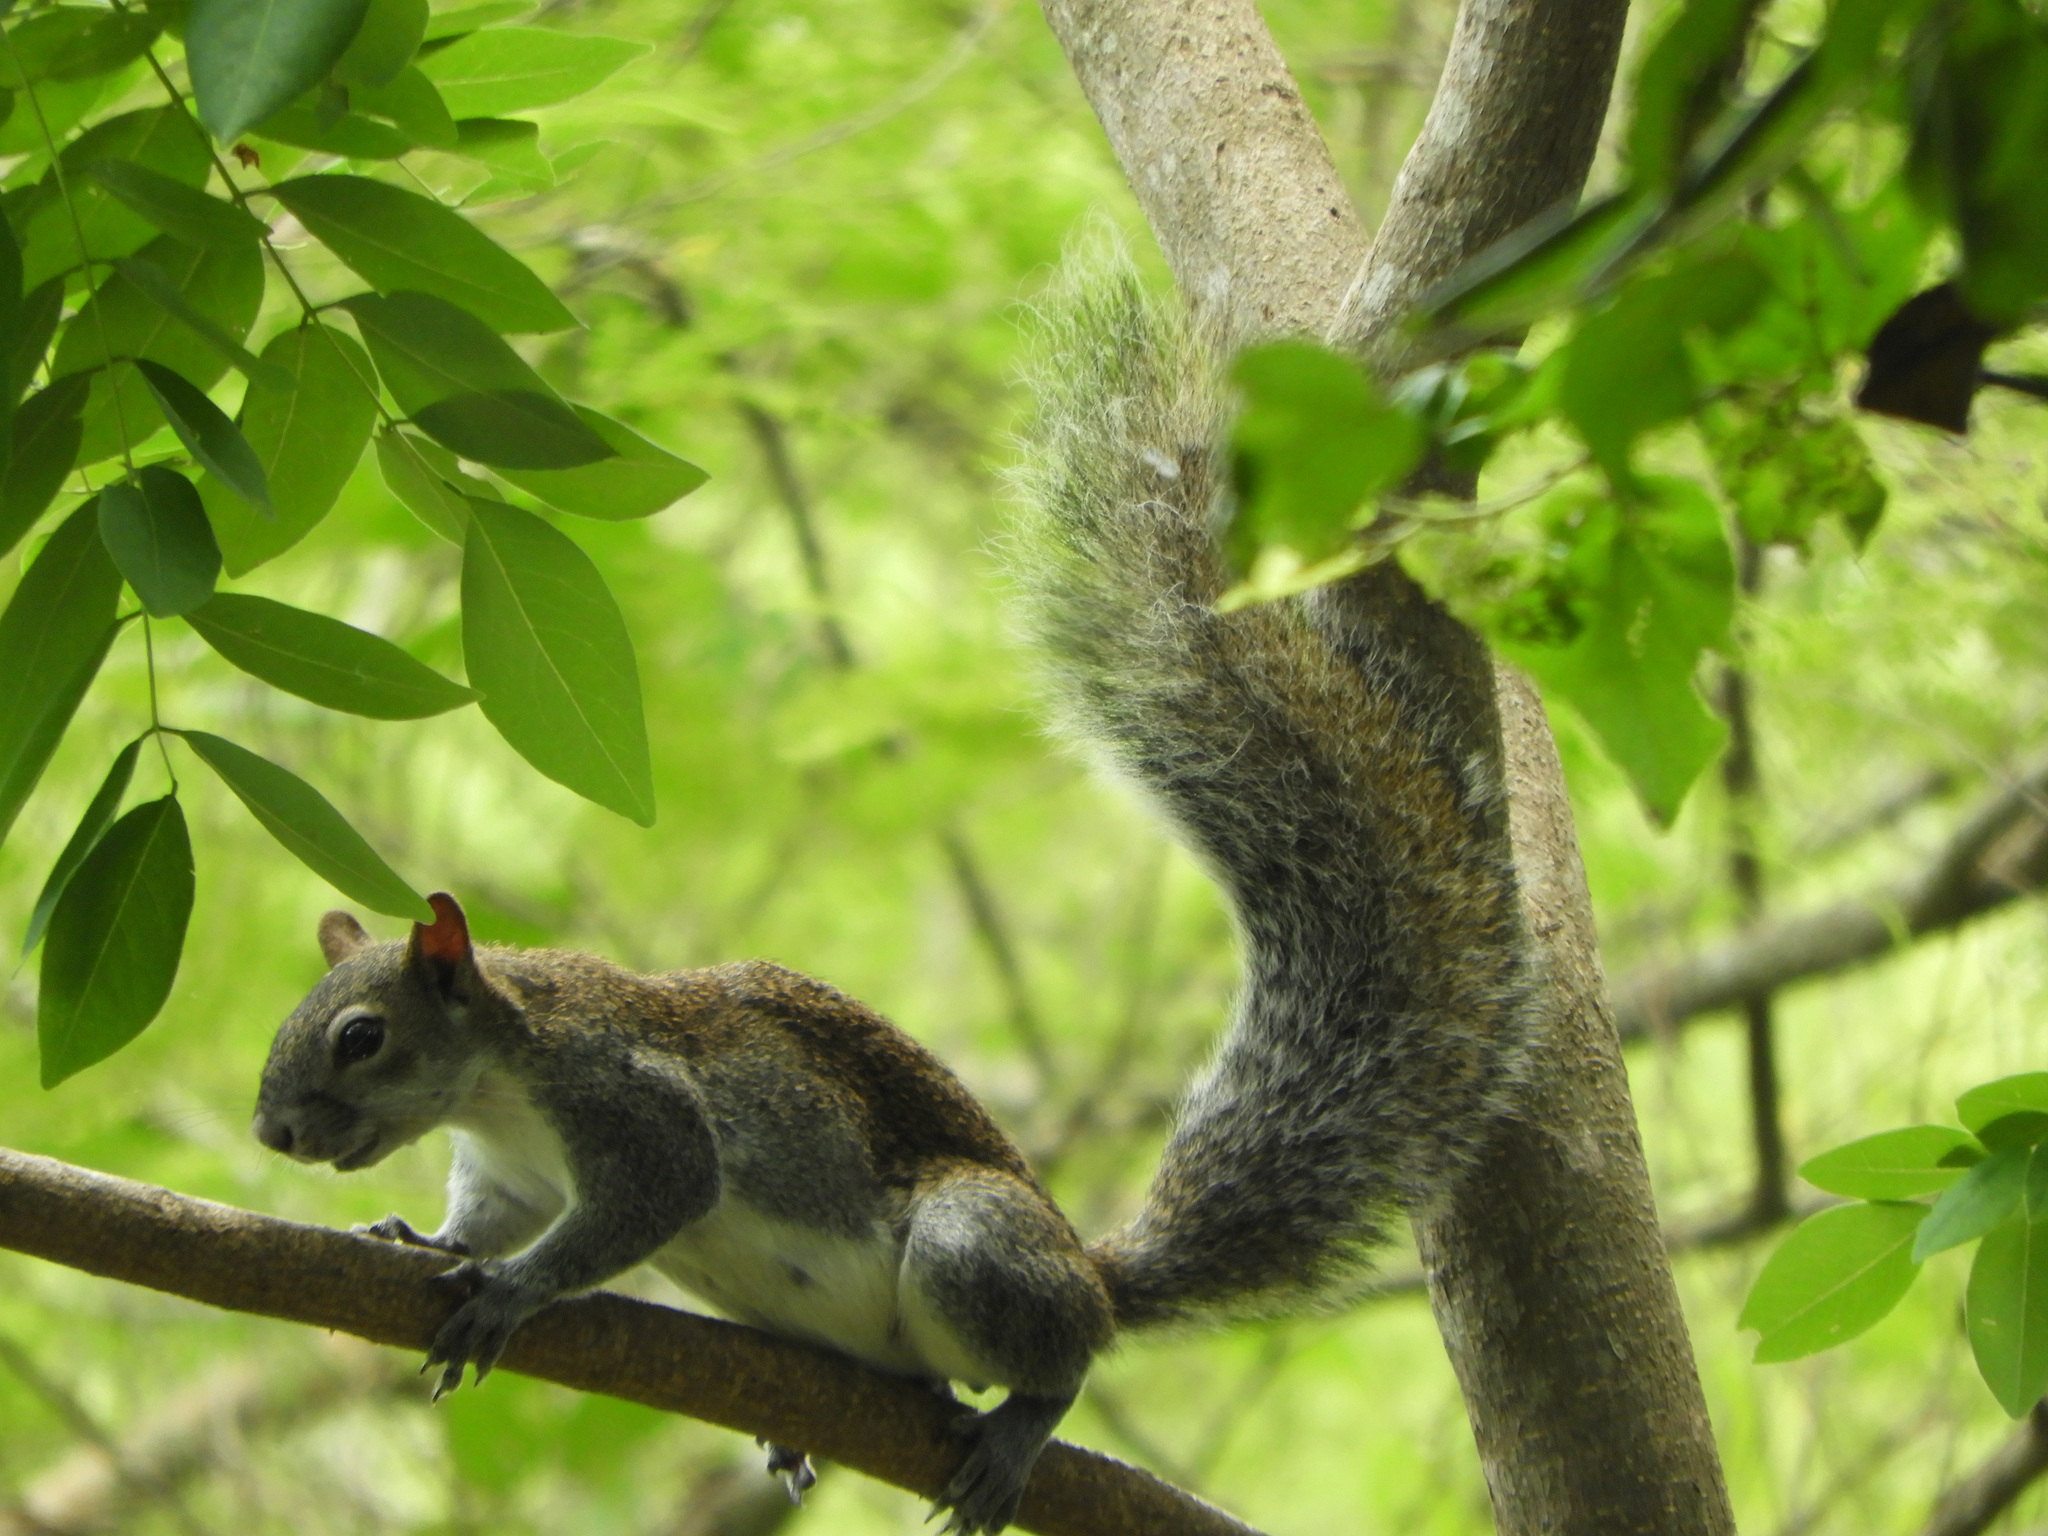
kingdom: Animalia
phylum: Chordata
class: Mammalia
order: Rodentia
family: Sciuridae
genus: Sciurus
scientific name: Sciurus colliaei
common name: Collie's squirrel
